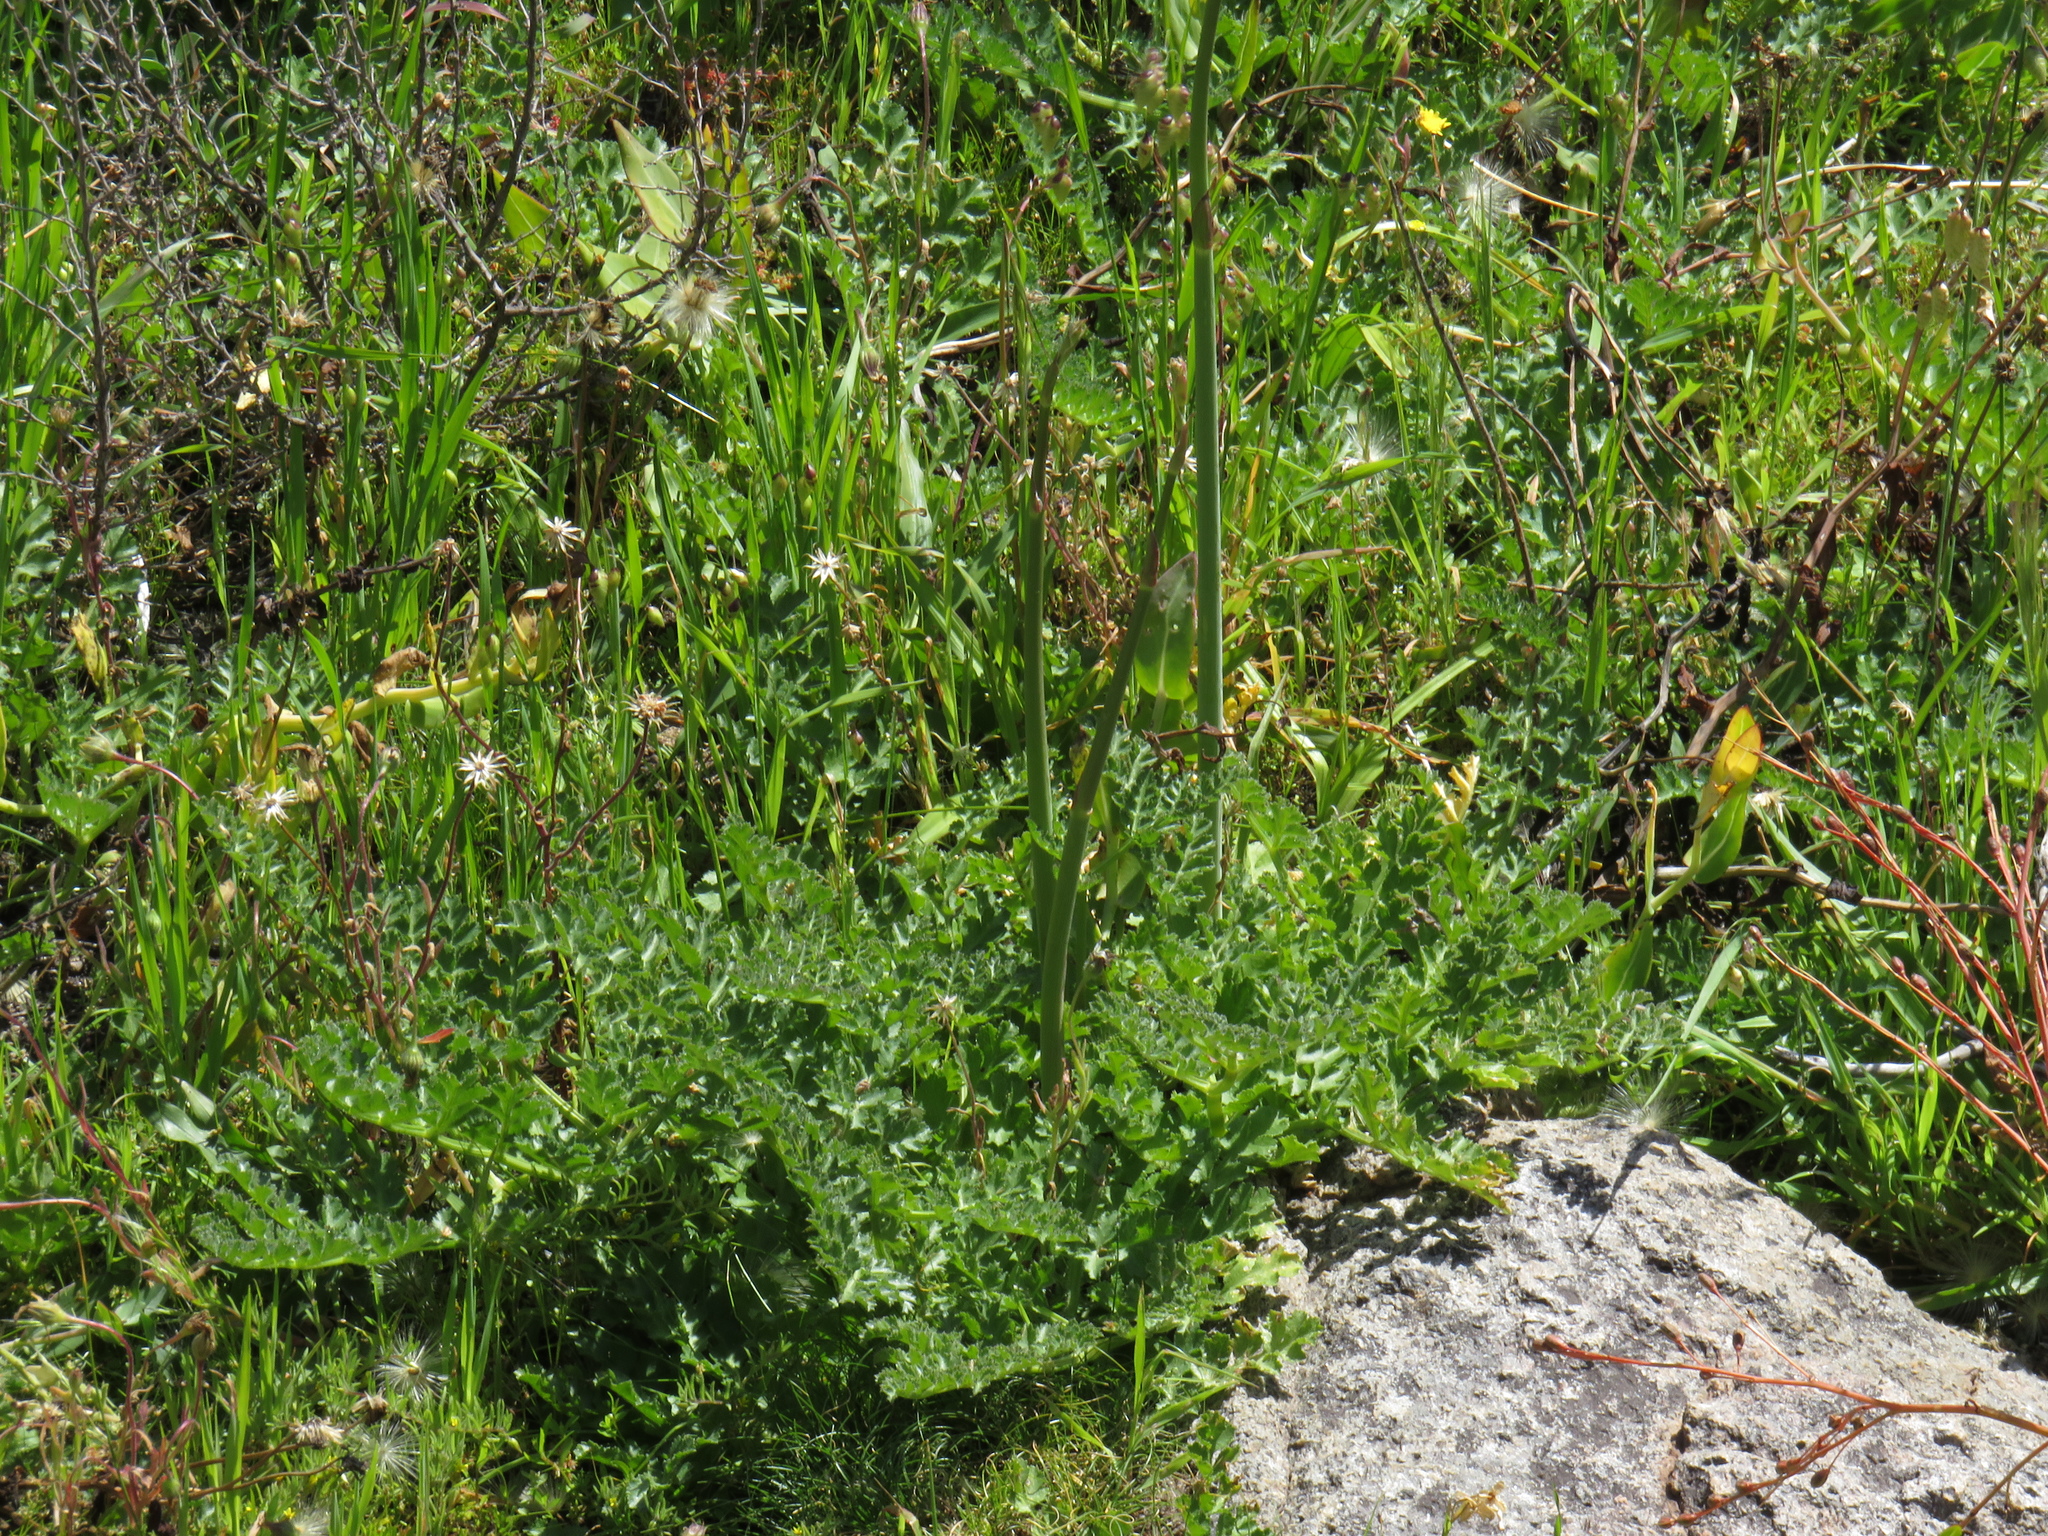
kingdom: Plantae
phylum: Tracheophyta
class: Magnoliopsida
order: Apiales
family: Apiaceae
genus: Annesorhiza
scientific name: Annesorhiza grandiflora
